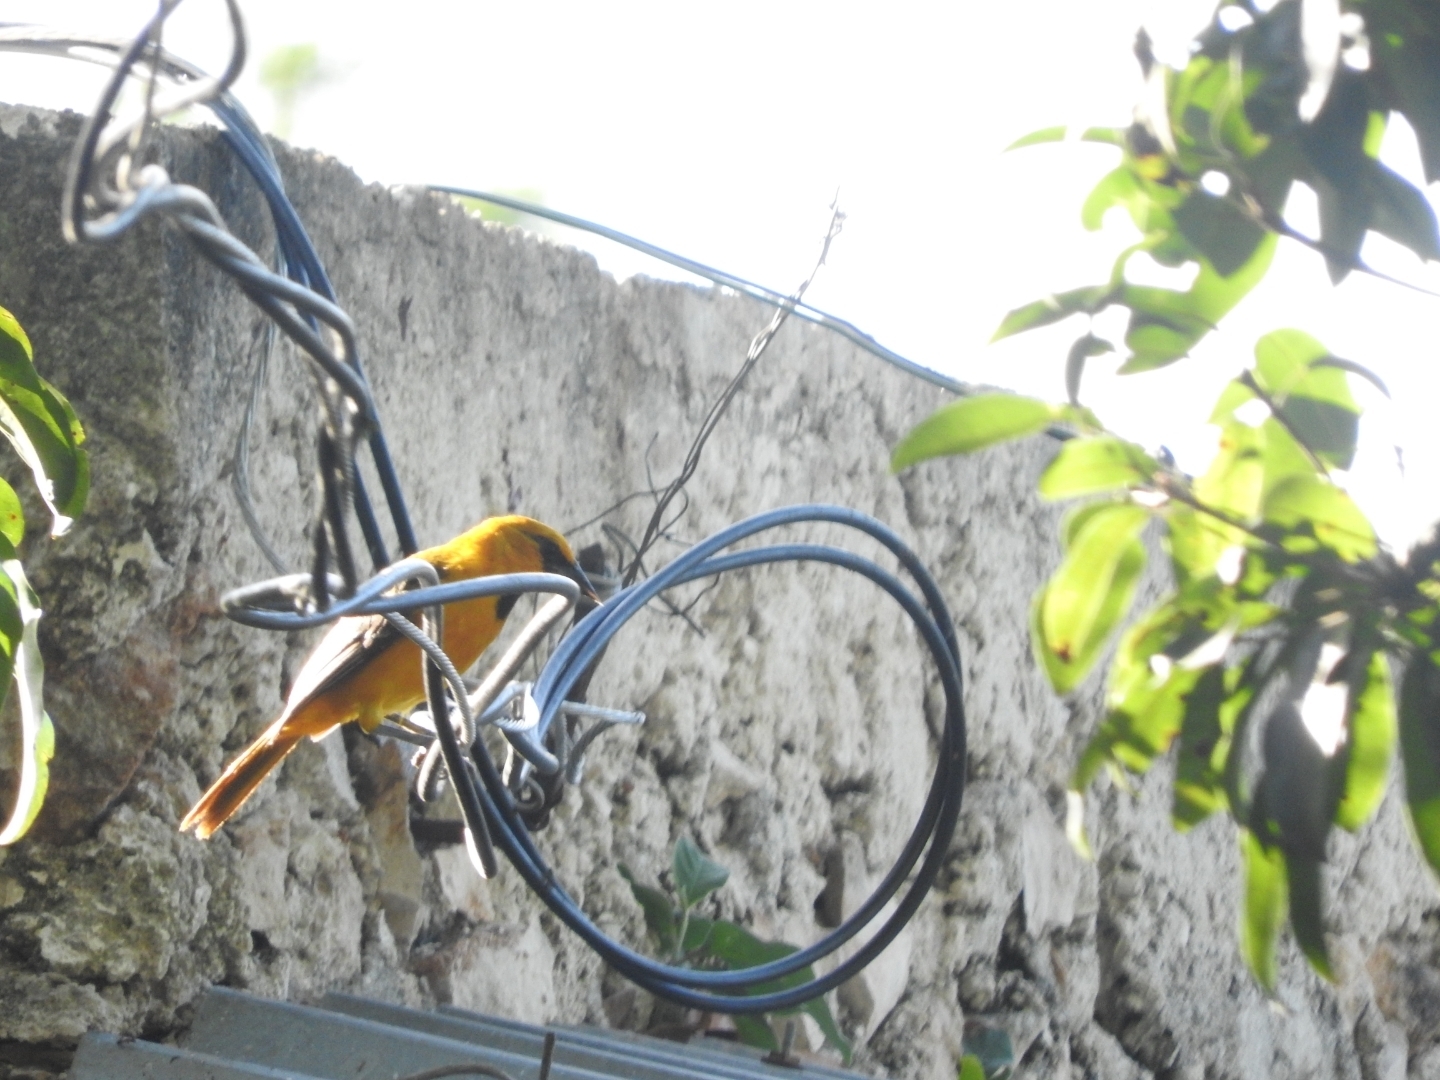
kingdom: Animalia
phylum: Chordata
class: Aves
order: Passeriformes
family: Icteridae
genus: Icterus
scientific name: Icterus auratus
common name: Orange oriole
